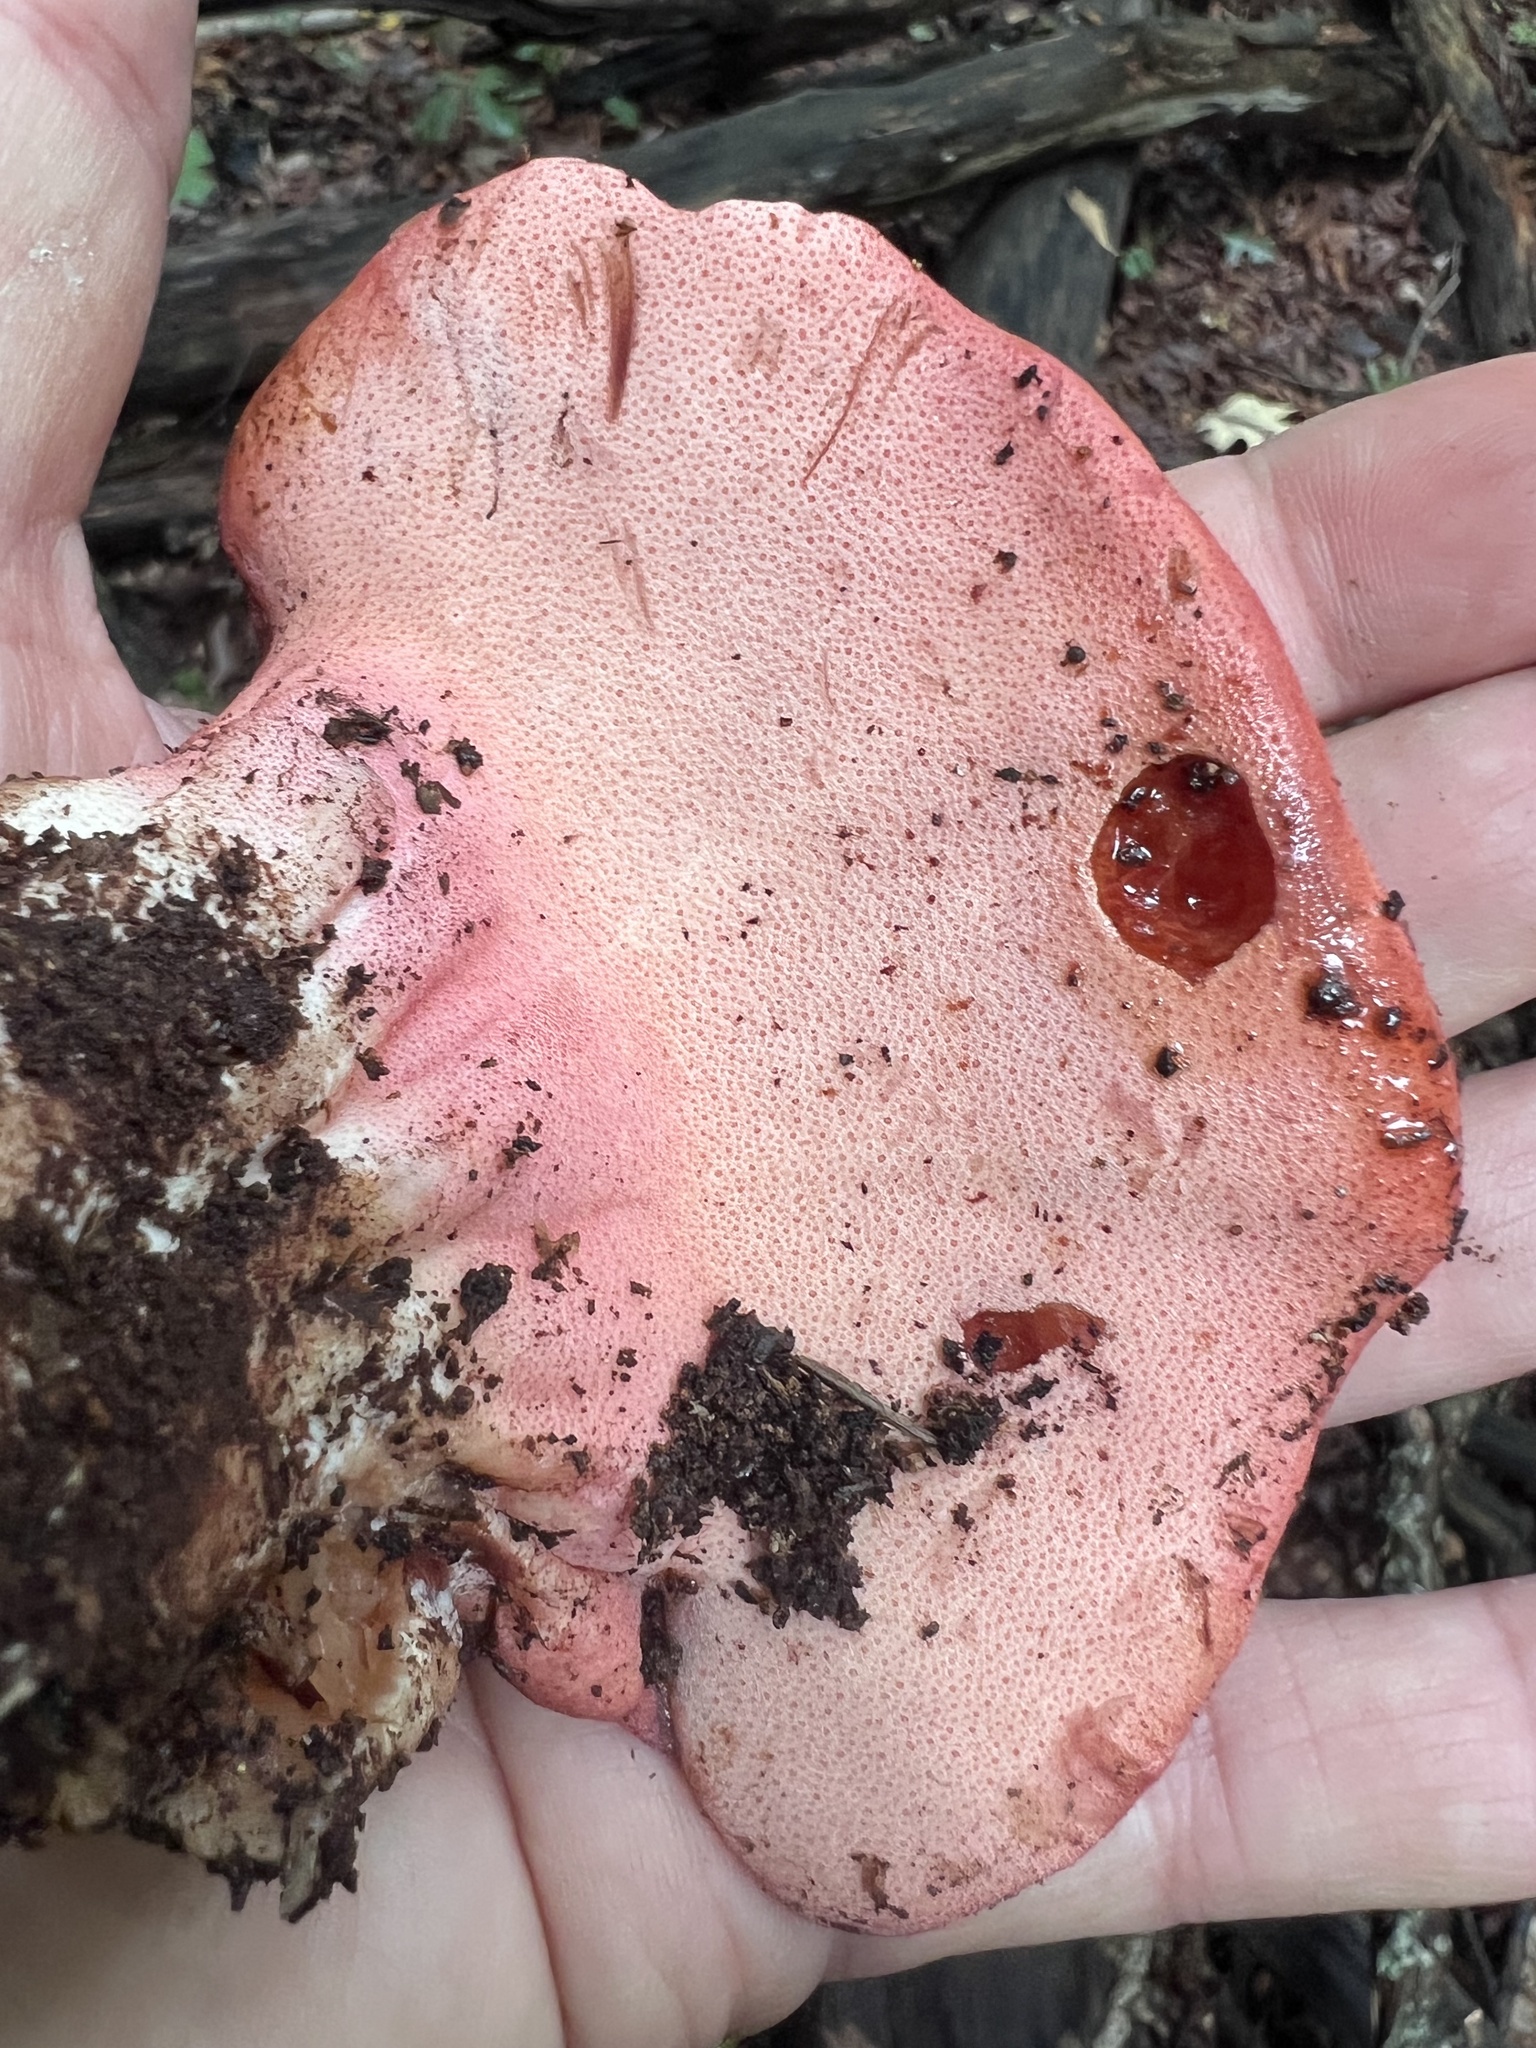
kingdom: Fungi
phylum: Basidiomycota
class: Agaricomycetes
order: Agaricales
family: Fistulinaceae
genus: Fistulina
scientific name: Fistulina hepatica
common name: Beef-steak fungus
